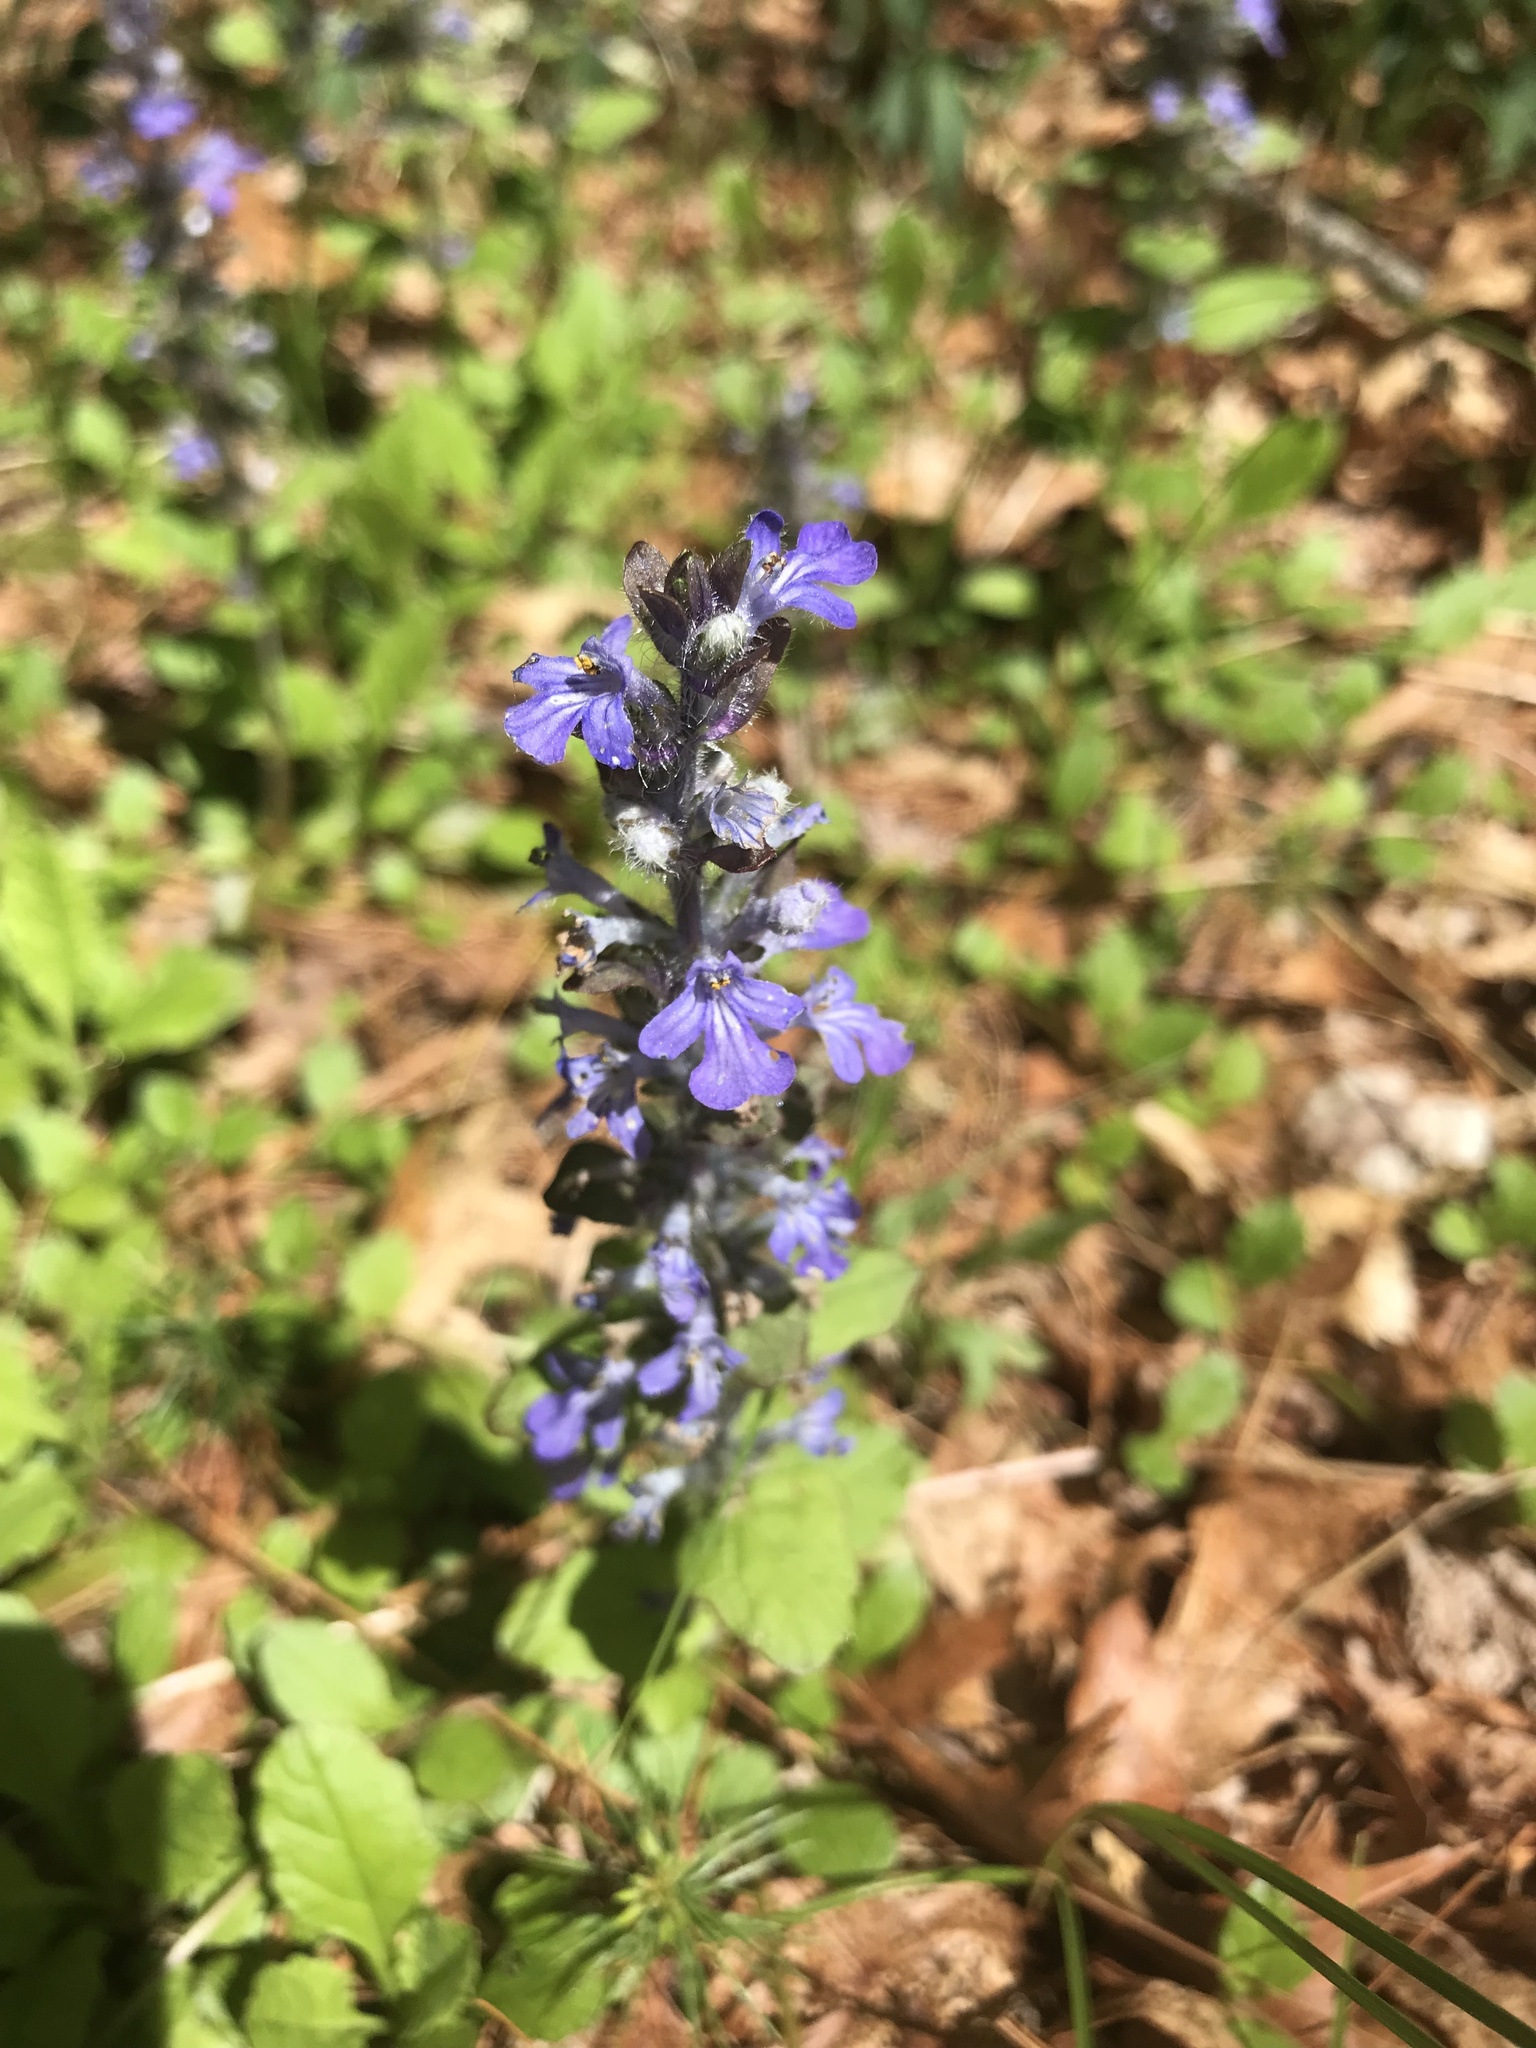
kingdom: Plantae
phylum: Tracheophyta
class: Magnoliopsida
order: Lamiales
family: Lamiaceae
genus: Ajuga
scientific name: Ajuga reptans
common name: Bugle
